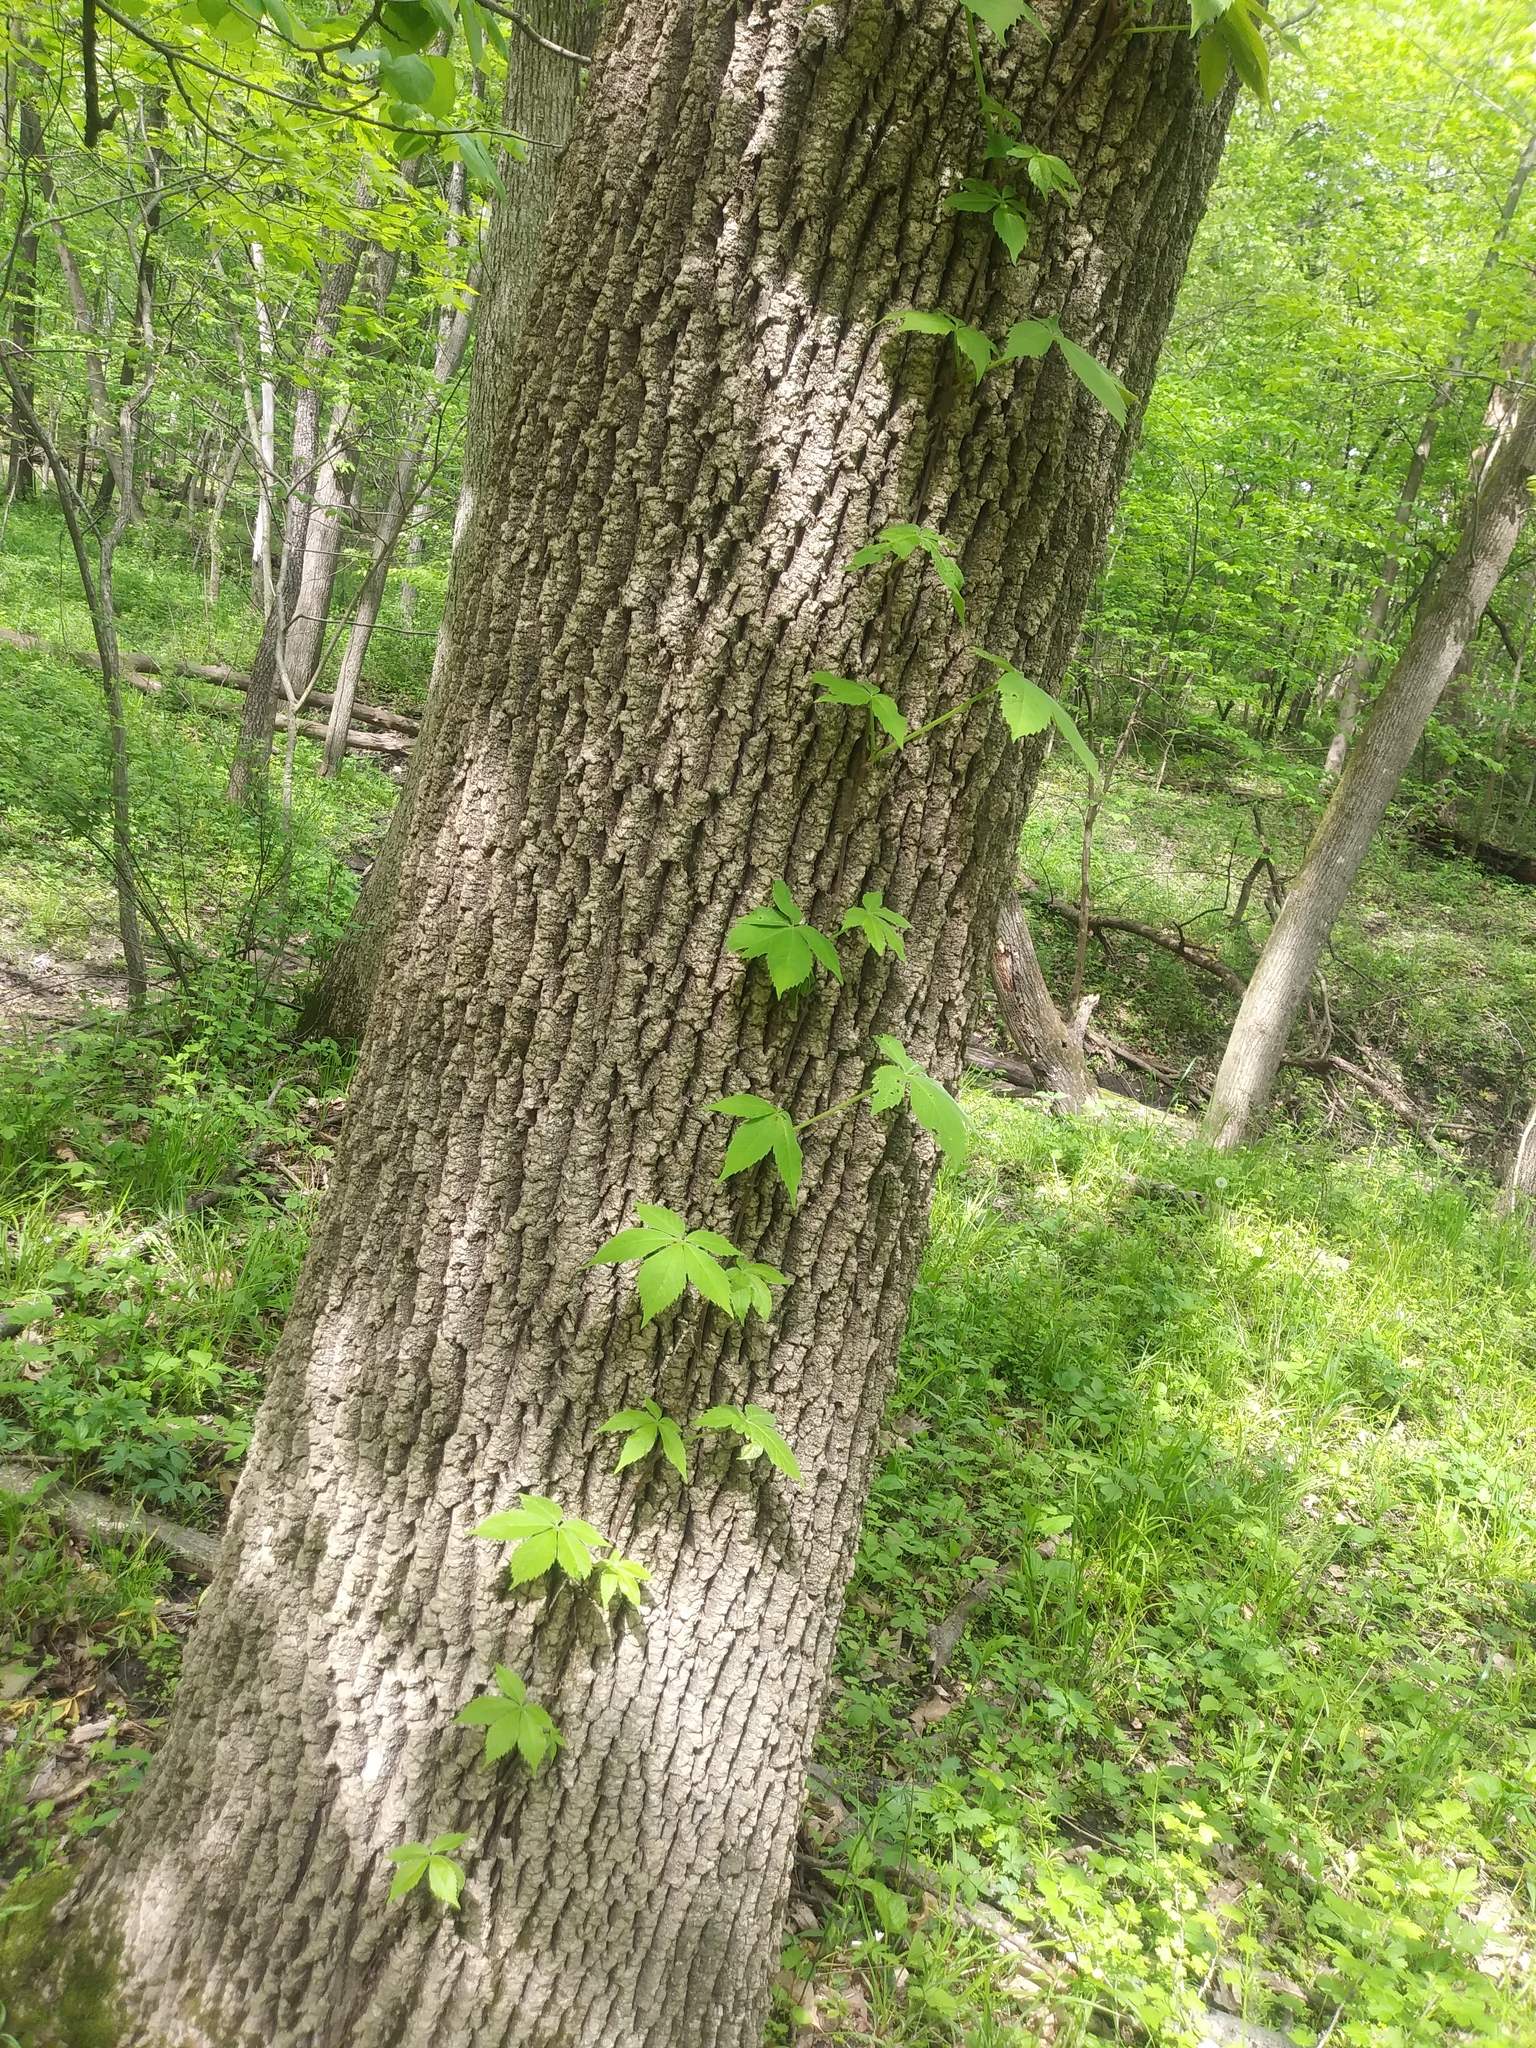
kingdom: Plantae
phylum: Tracheophyta
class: Magnoliopsida
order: Vitales
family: Vitaceae
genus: Parthenocissus
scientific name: Parthenocissus quinquefolia
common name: Virginia-creeper
